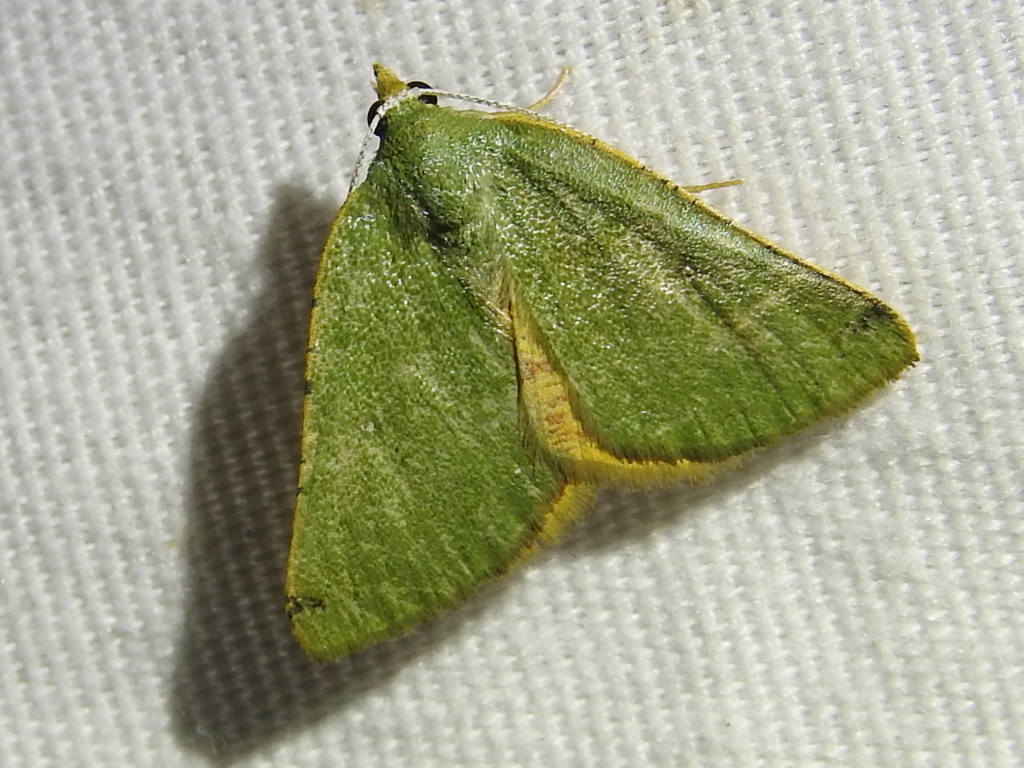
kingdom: Animalia
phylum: Arthropoda
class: Insecta
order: Lepidoptera
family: Geometridae
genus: Chloraspilates
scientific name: Chloraspilates bicoloraria
